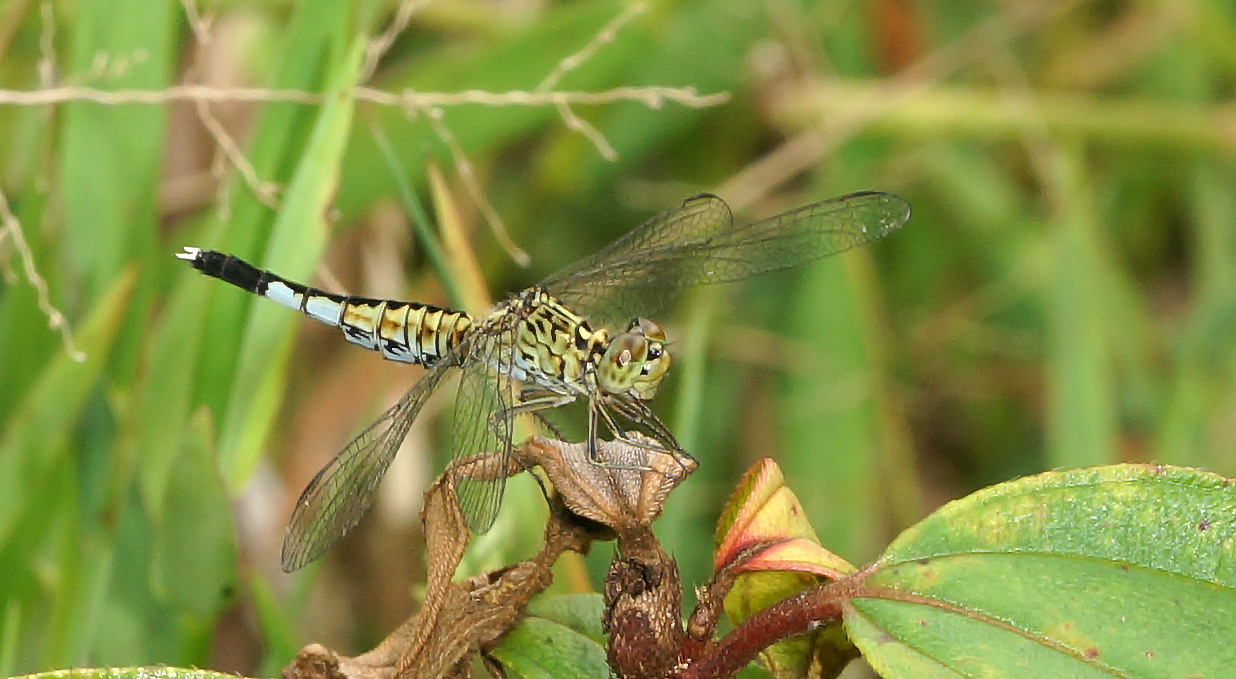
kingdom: Animalia
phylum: Arthropoda
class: Insecta
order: Odonata
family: Libellulidae
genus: Acisoma
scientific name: Acisoma panorpoides
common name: Asian pintail
